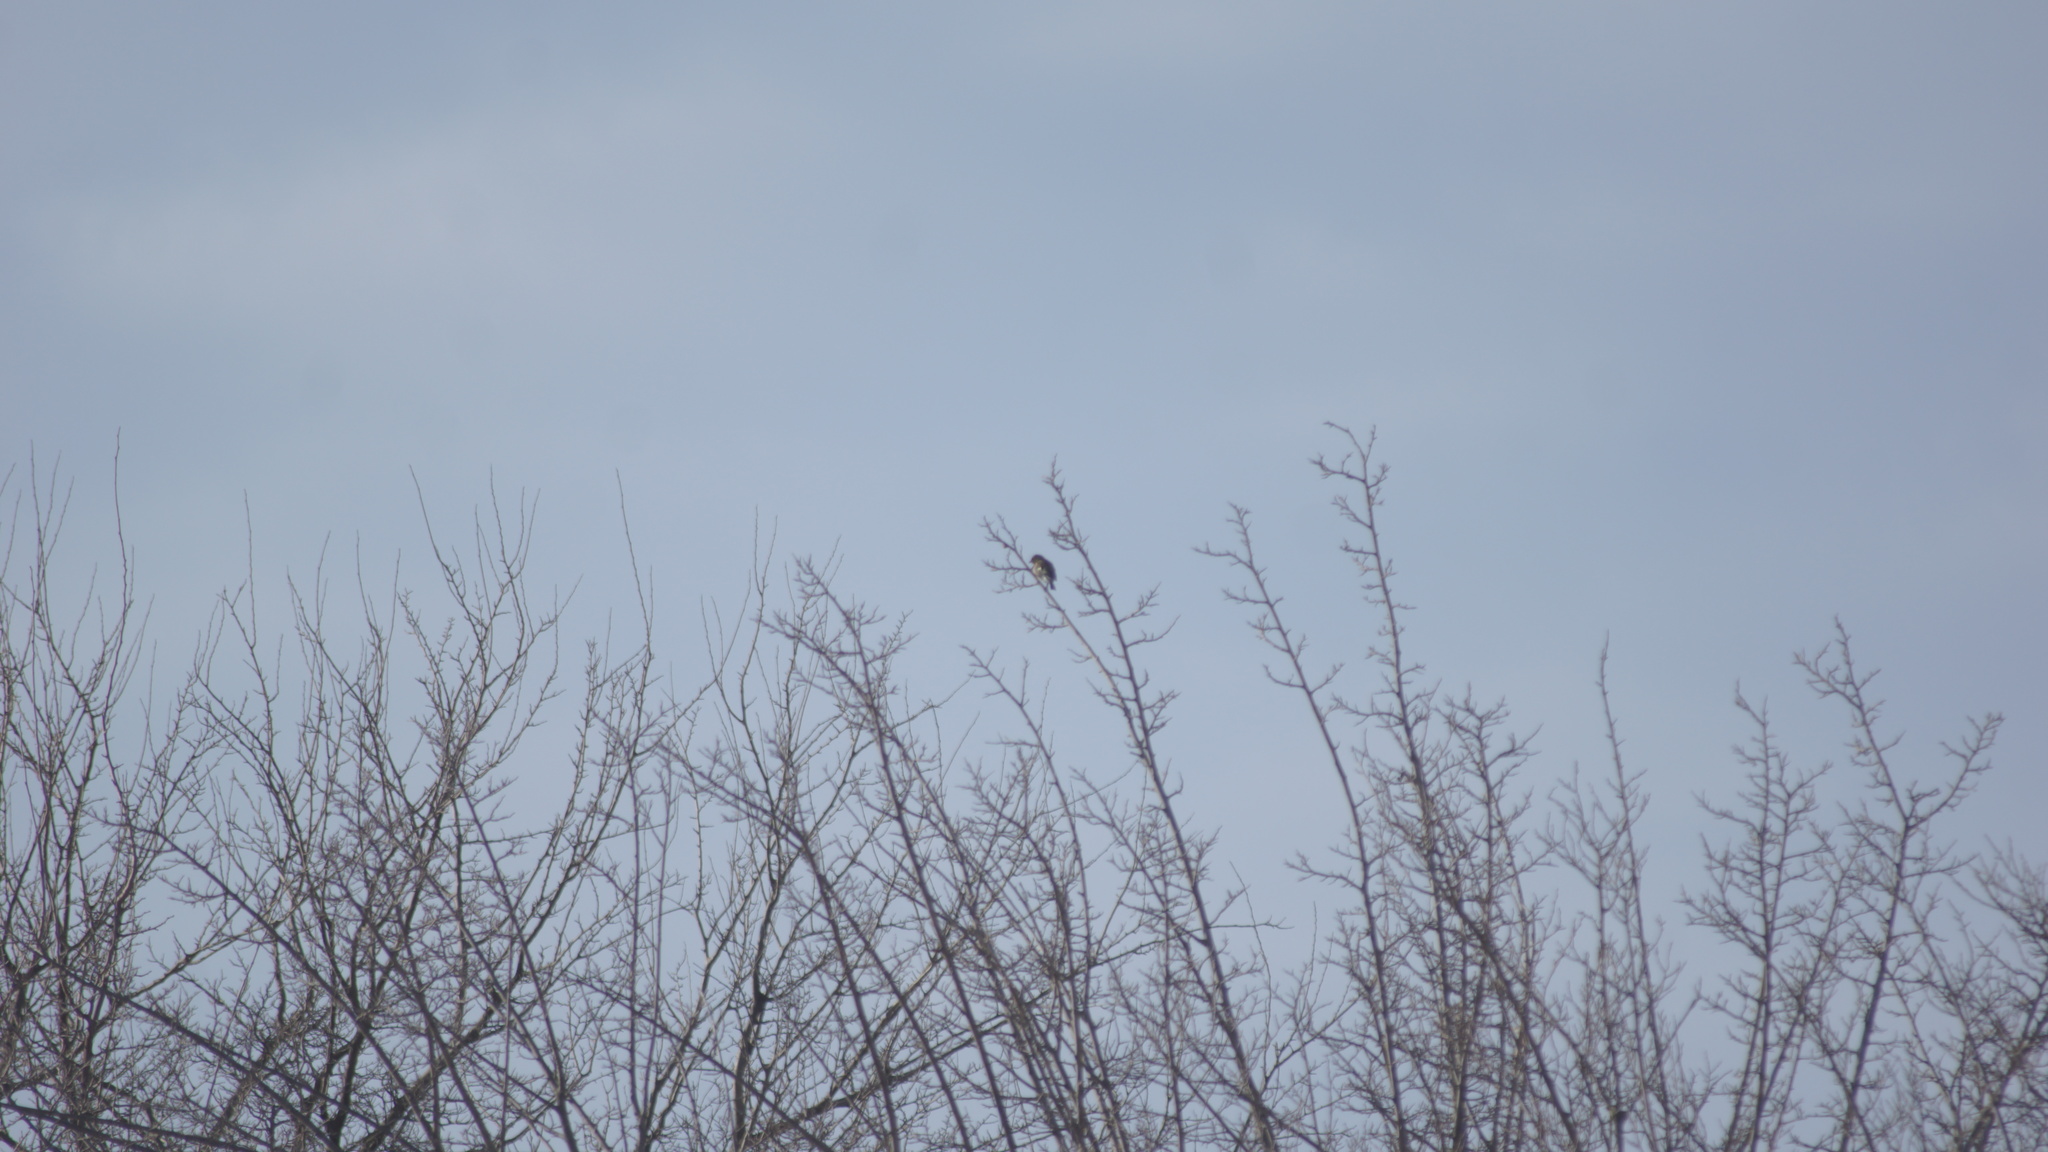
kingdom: Animalia
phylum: Chordata
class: Aves
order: Passeriformes
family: Fringillidae
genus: Fringilla
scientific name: Fringilla coelebs
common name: Common chaffinch
